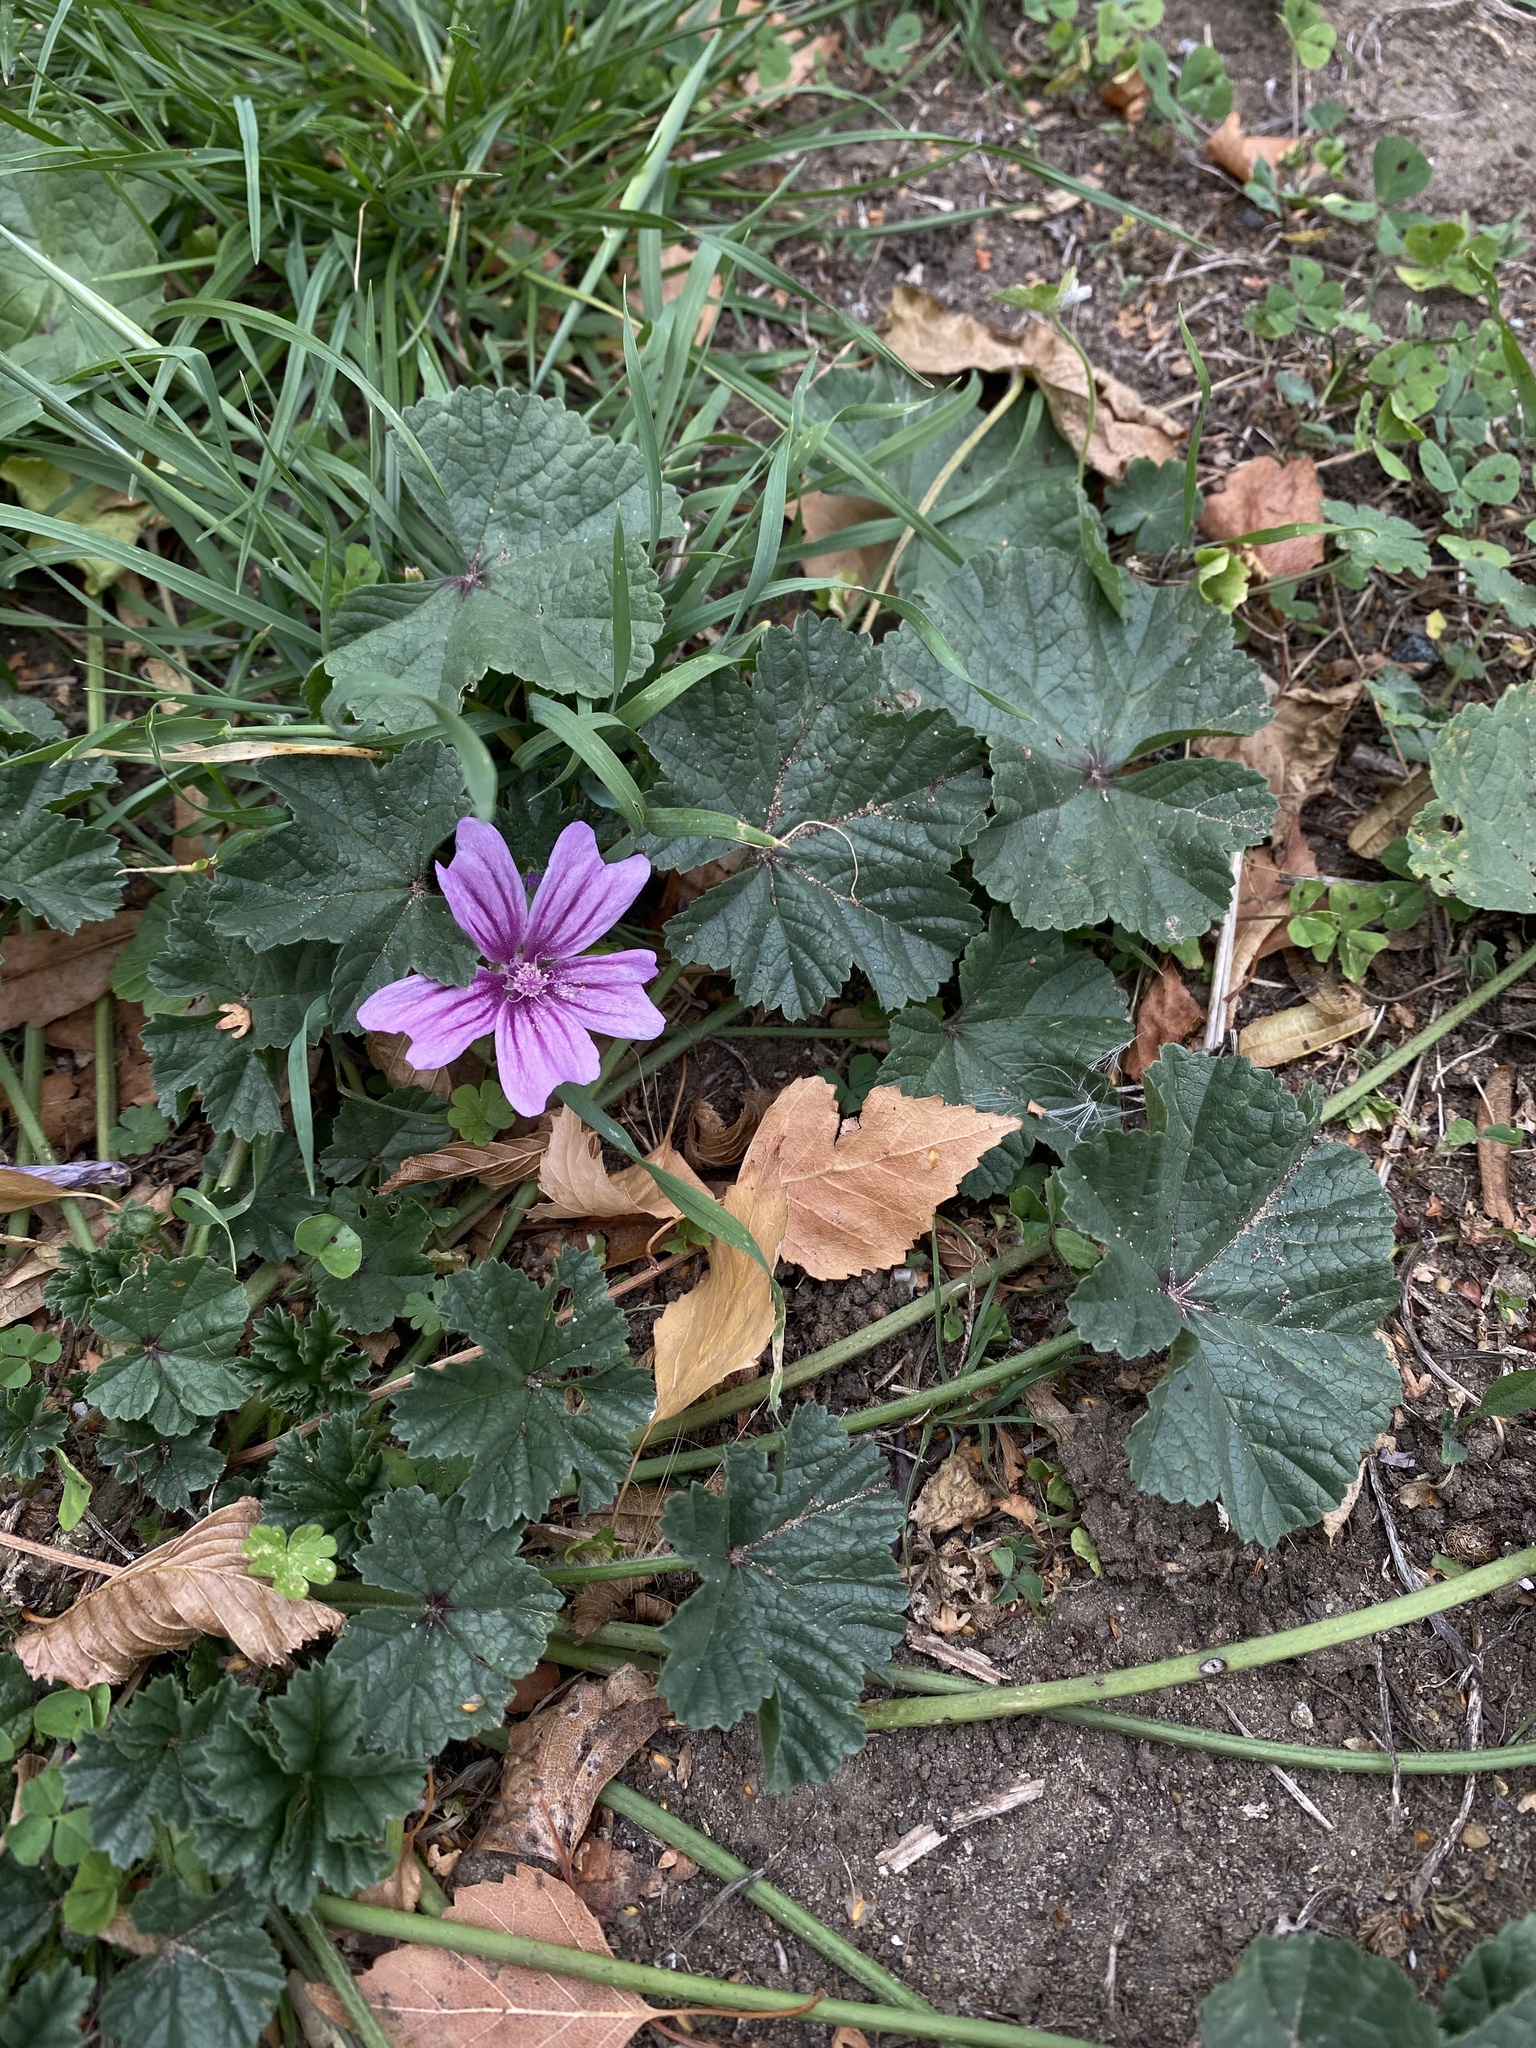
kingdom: Plantae
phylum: Tracheophyta
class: Magnoliopsida
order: Malvales
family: Malvaceae
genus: Malva
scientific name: Malva sylvestris
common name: Common mallow
